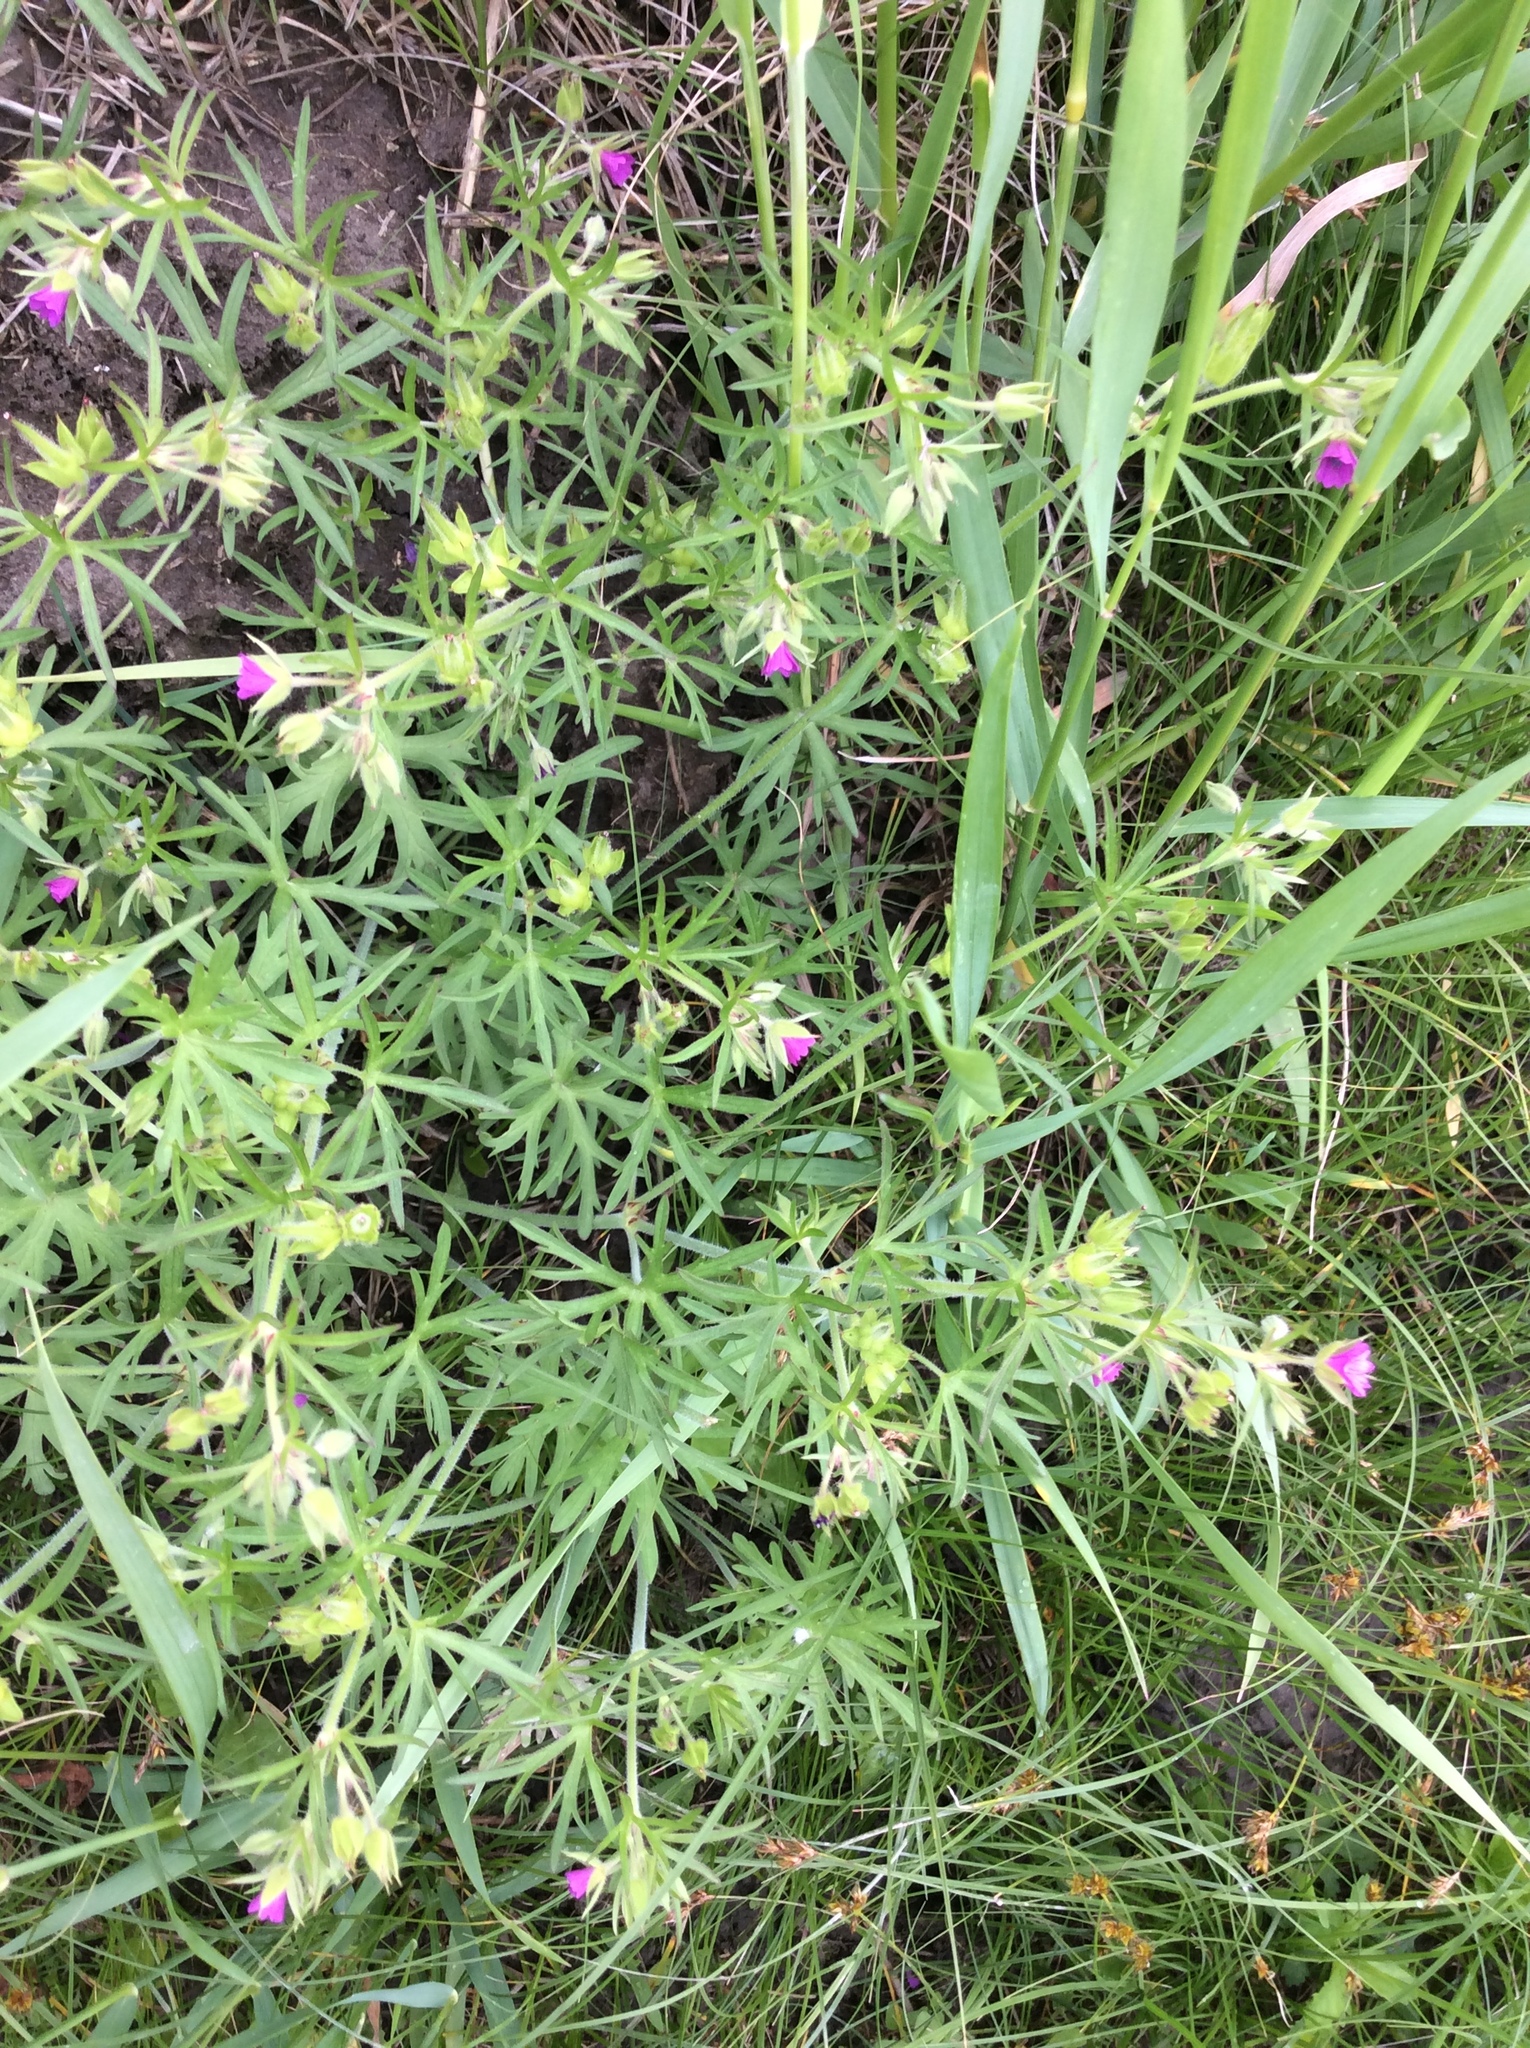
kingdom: Plantae
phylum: Tracheophyta
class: Magnoliopsida
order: Geraniales
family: Geraniaceae
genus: Geranium
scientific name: Geranium dissectum
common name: Cut-leaved crane's-bill
